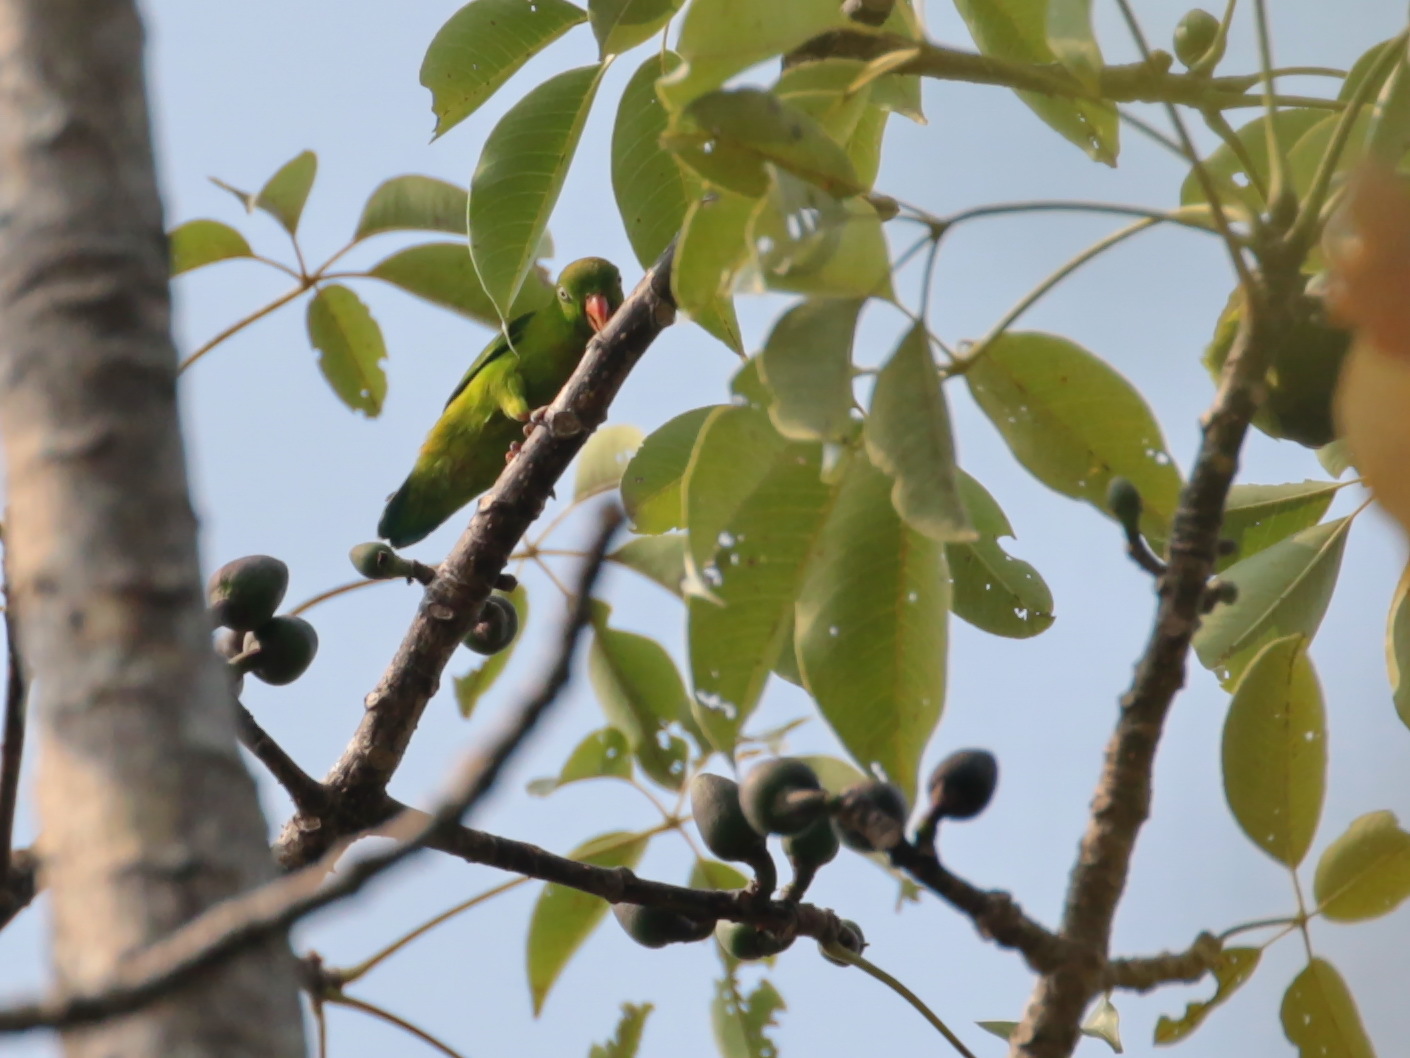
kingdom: Animalia
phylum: Chordata
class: Aves
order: Psittaciformes
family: Psittacidae
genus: Loriculus
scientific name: Loriculus vernalis
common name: Vernal hanging parrot
